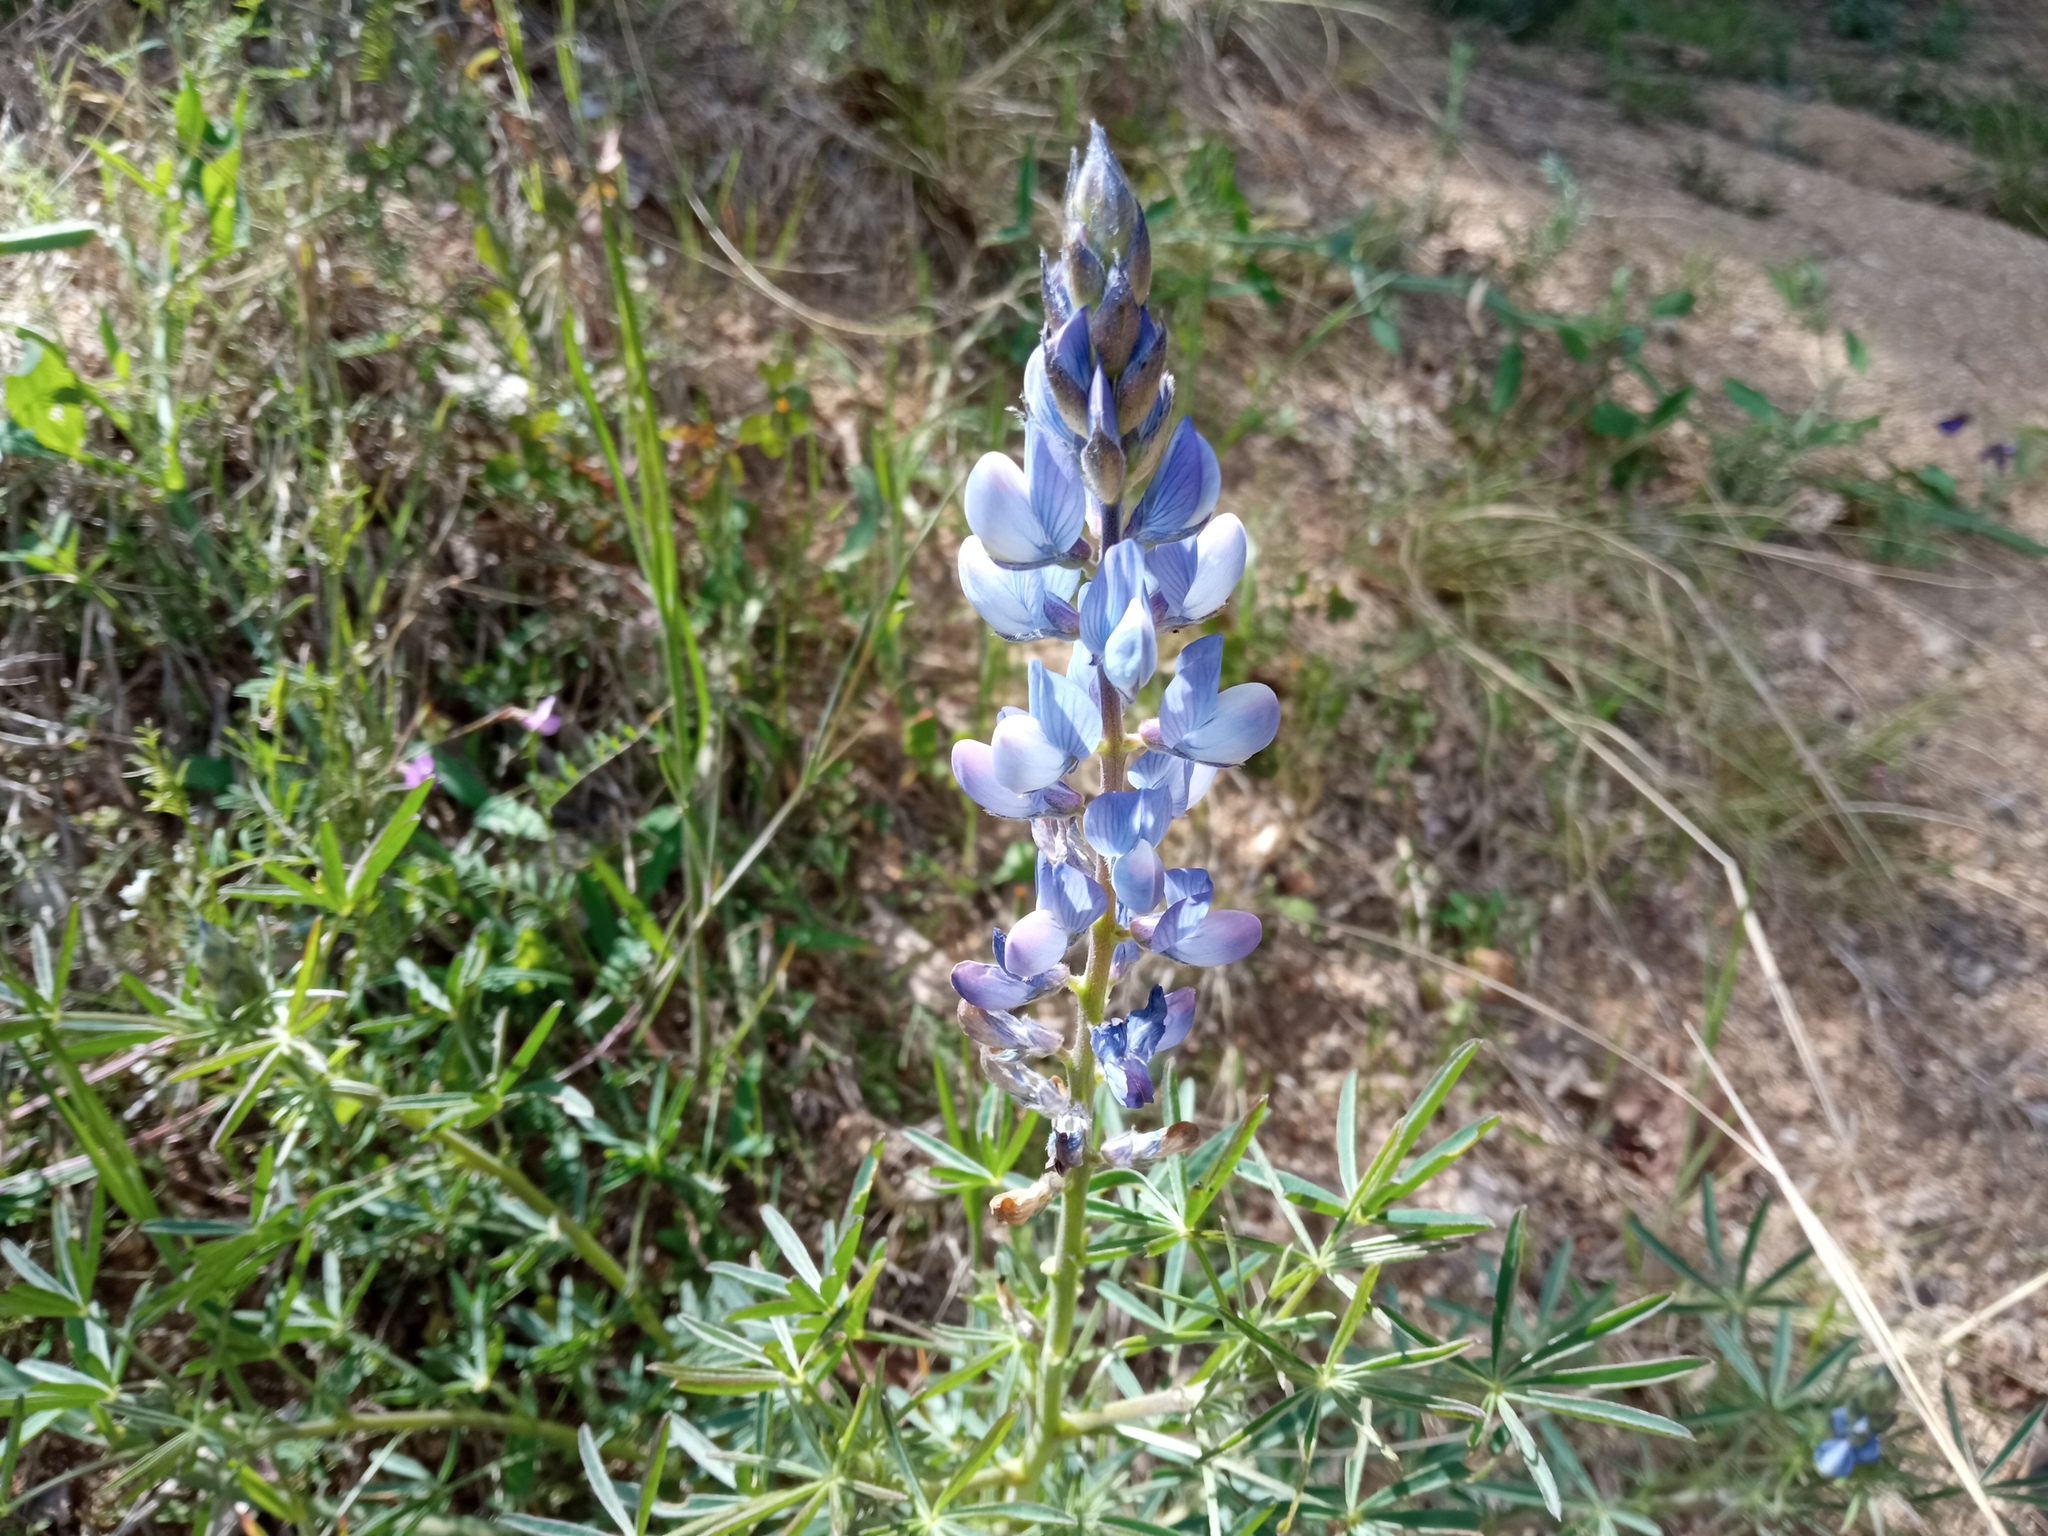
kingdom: Plantae
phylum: Tracheophyta
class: Magnoliopsida
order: Fabales
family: Fabaceae
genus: Lupinus
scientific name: Lupinus angustifolius
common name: Narrow-leaved lupin
